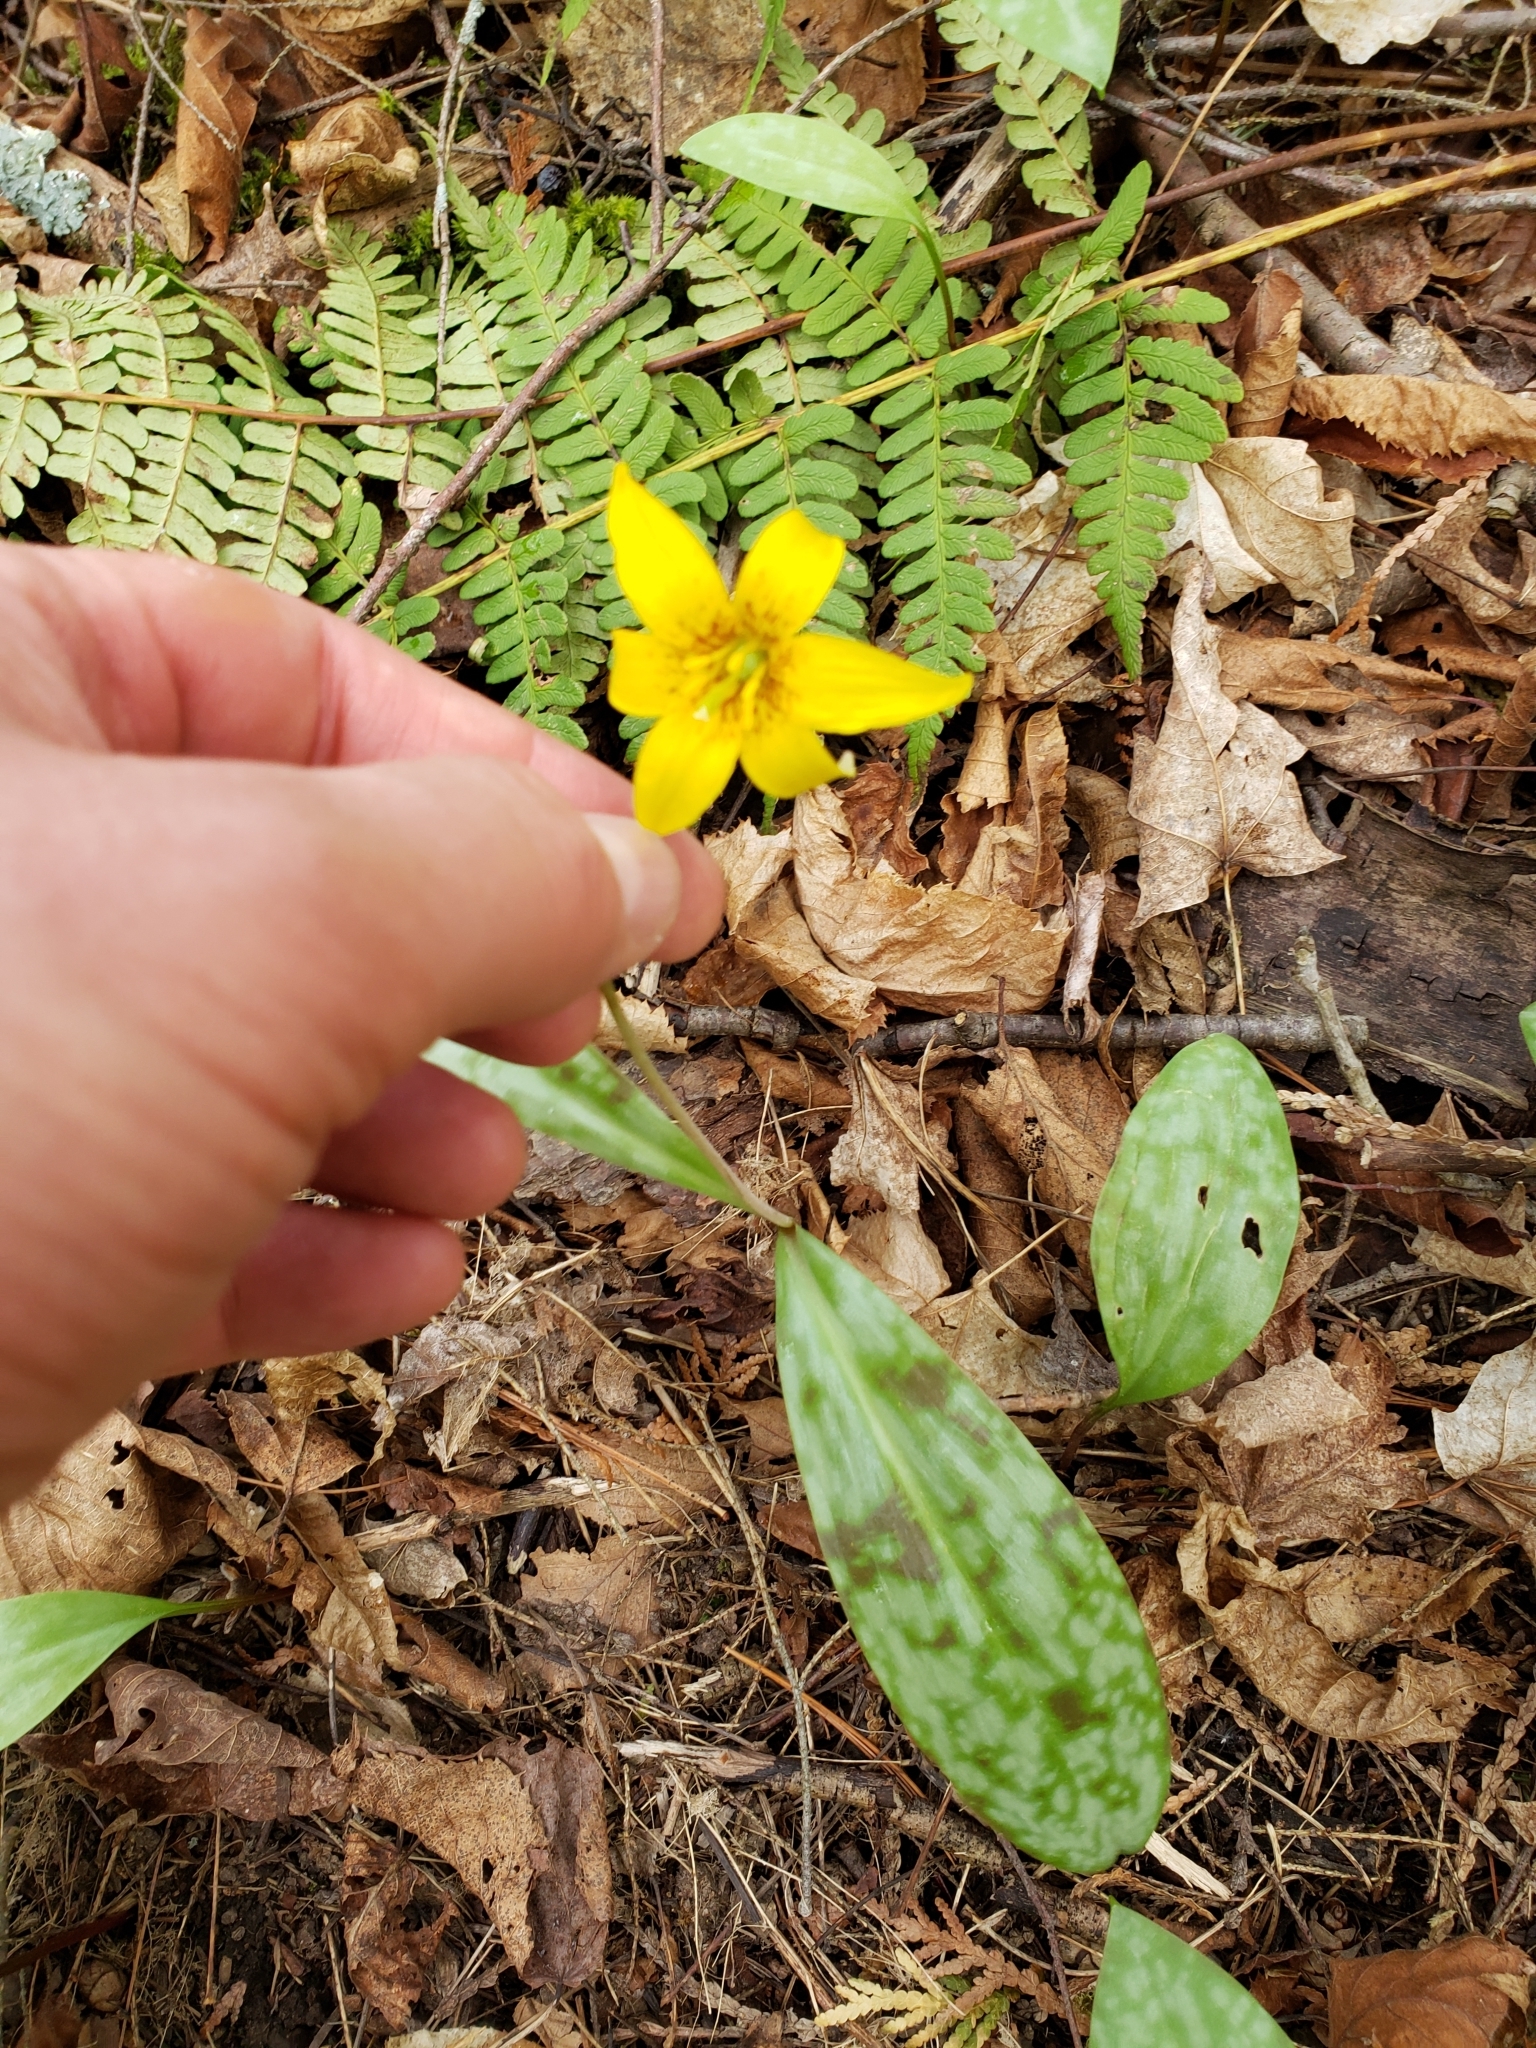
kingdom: Plantae
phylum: Tracheophyta
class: Liliopsida
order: Liliales
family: Liliaceae
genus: Erythronium
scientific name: Erythronium americanum
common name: Yellow adder's-tongue
